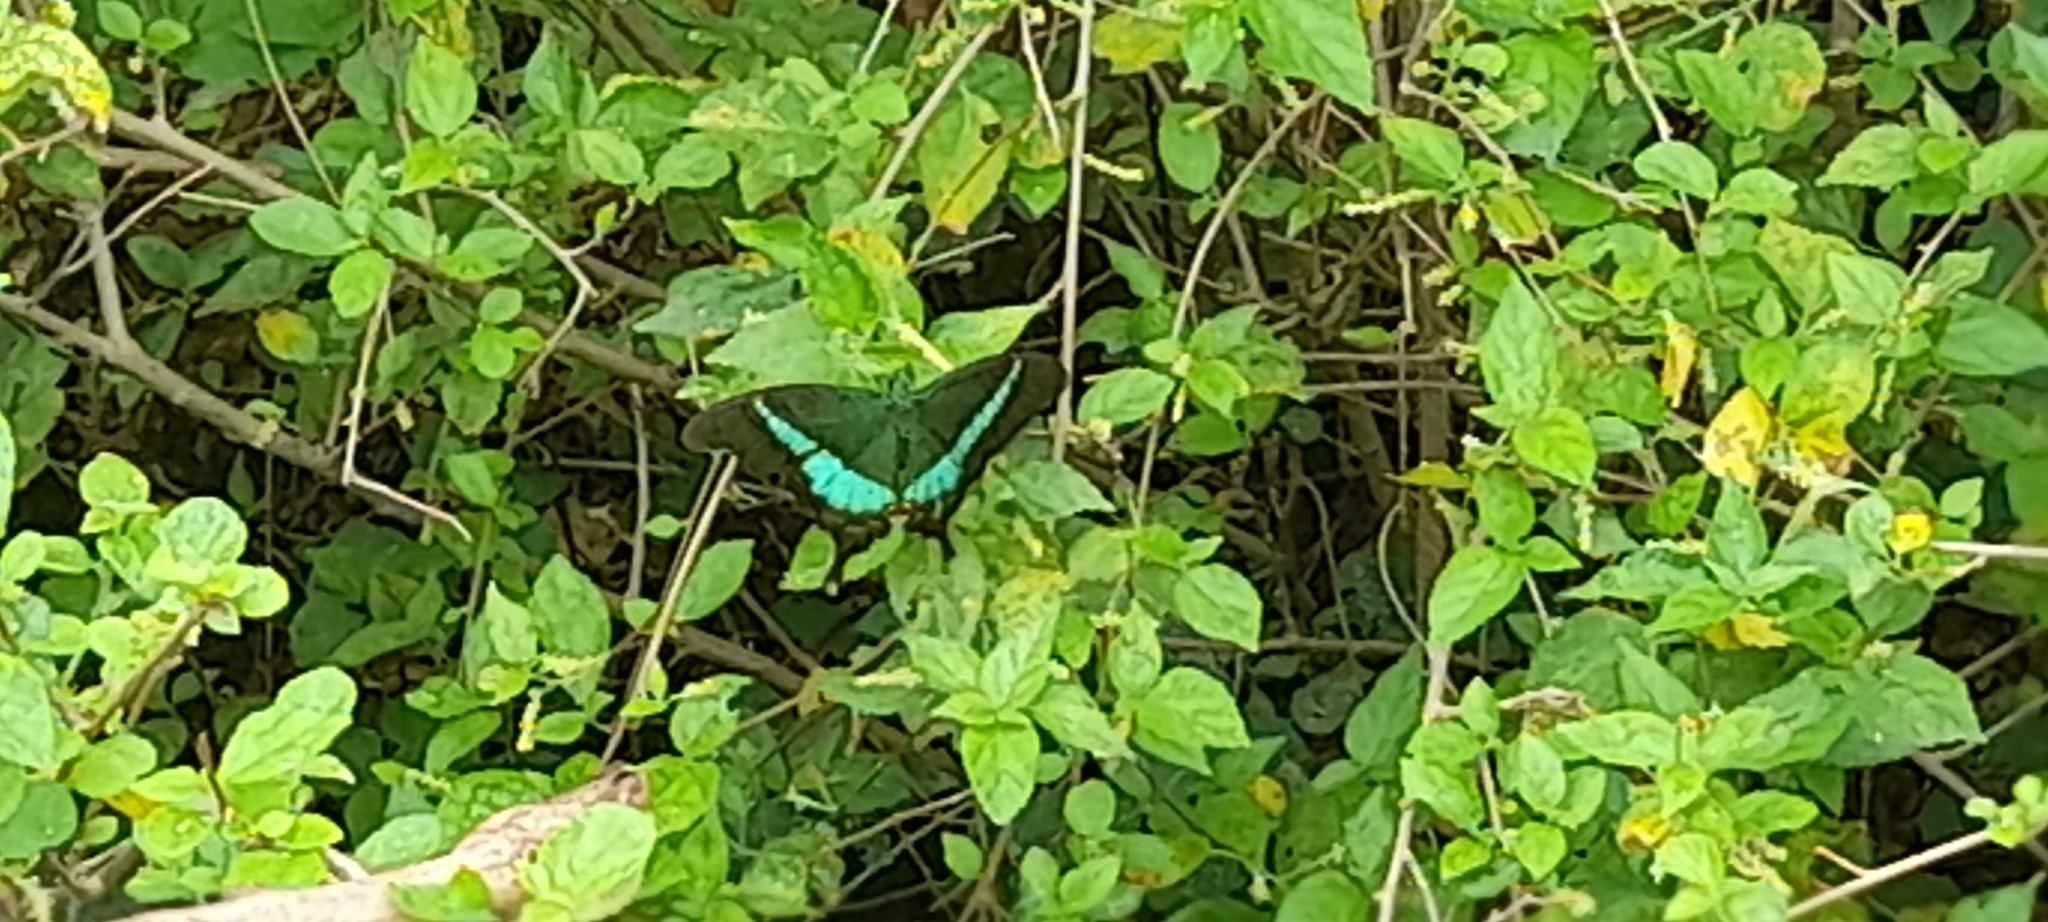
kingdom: Animalia
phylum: Arthropoda
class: Insecta
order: Lepidoptera
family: Papilionidae
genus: Papilio
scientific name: Papilio crino
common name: Common banded peacock
